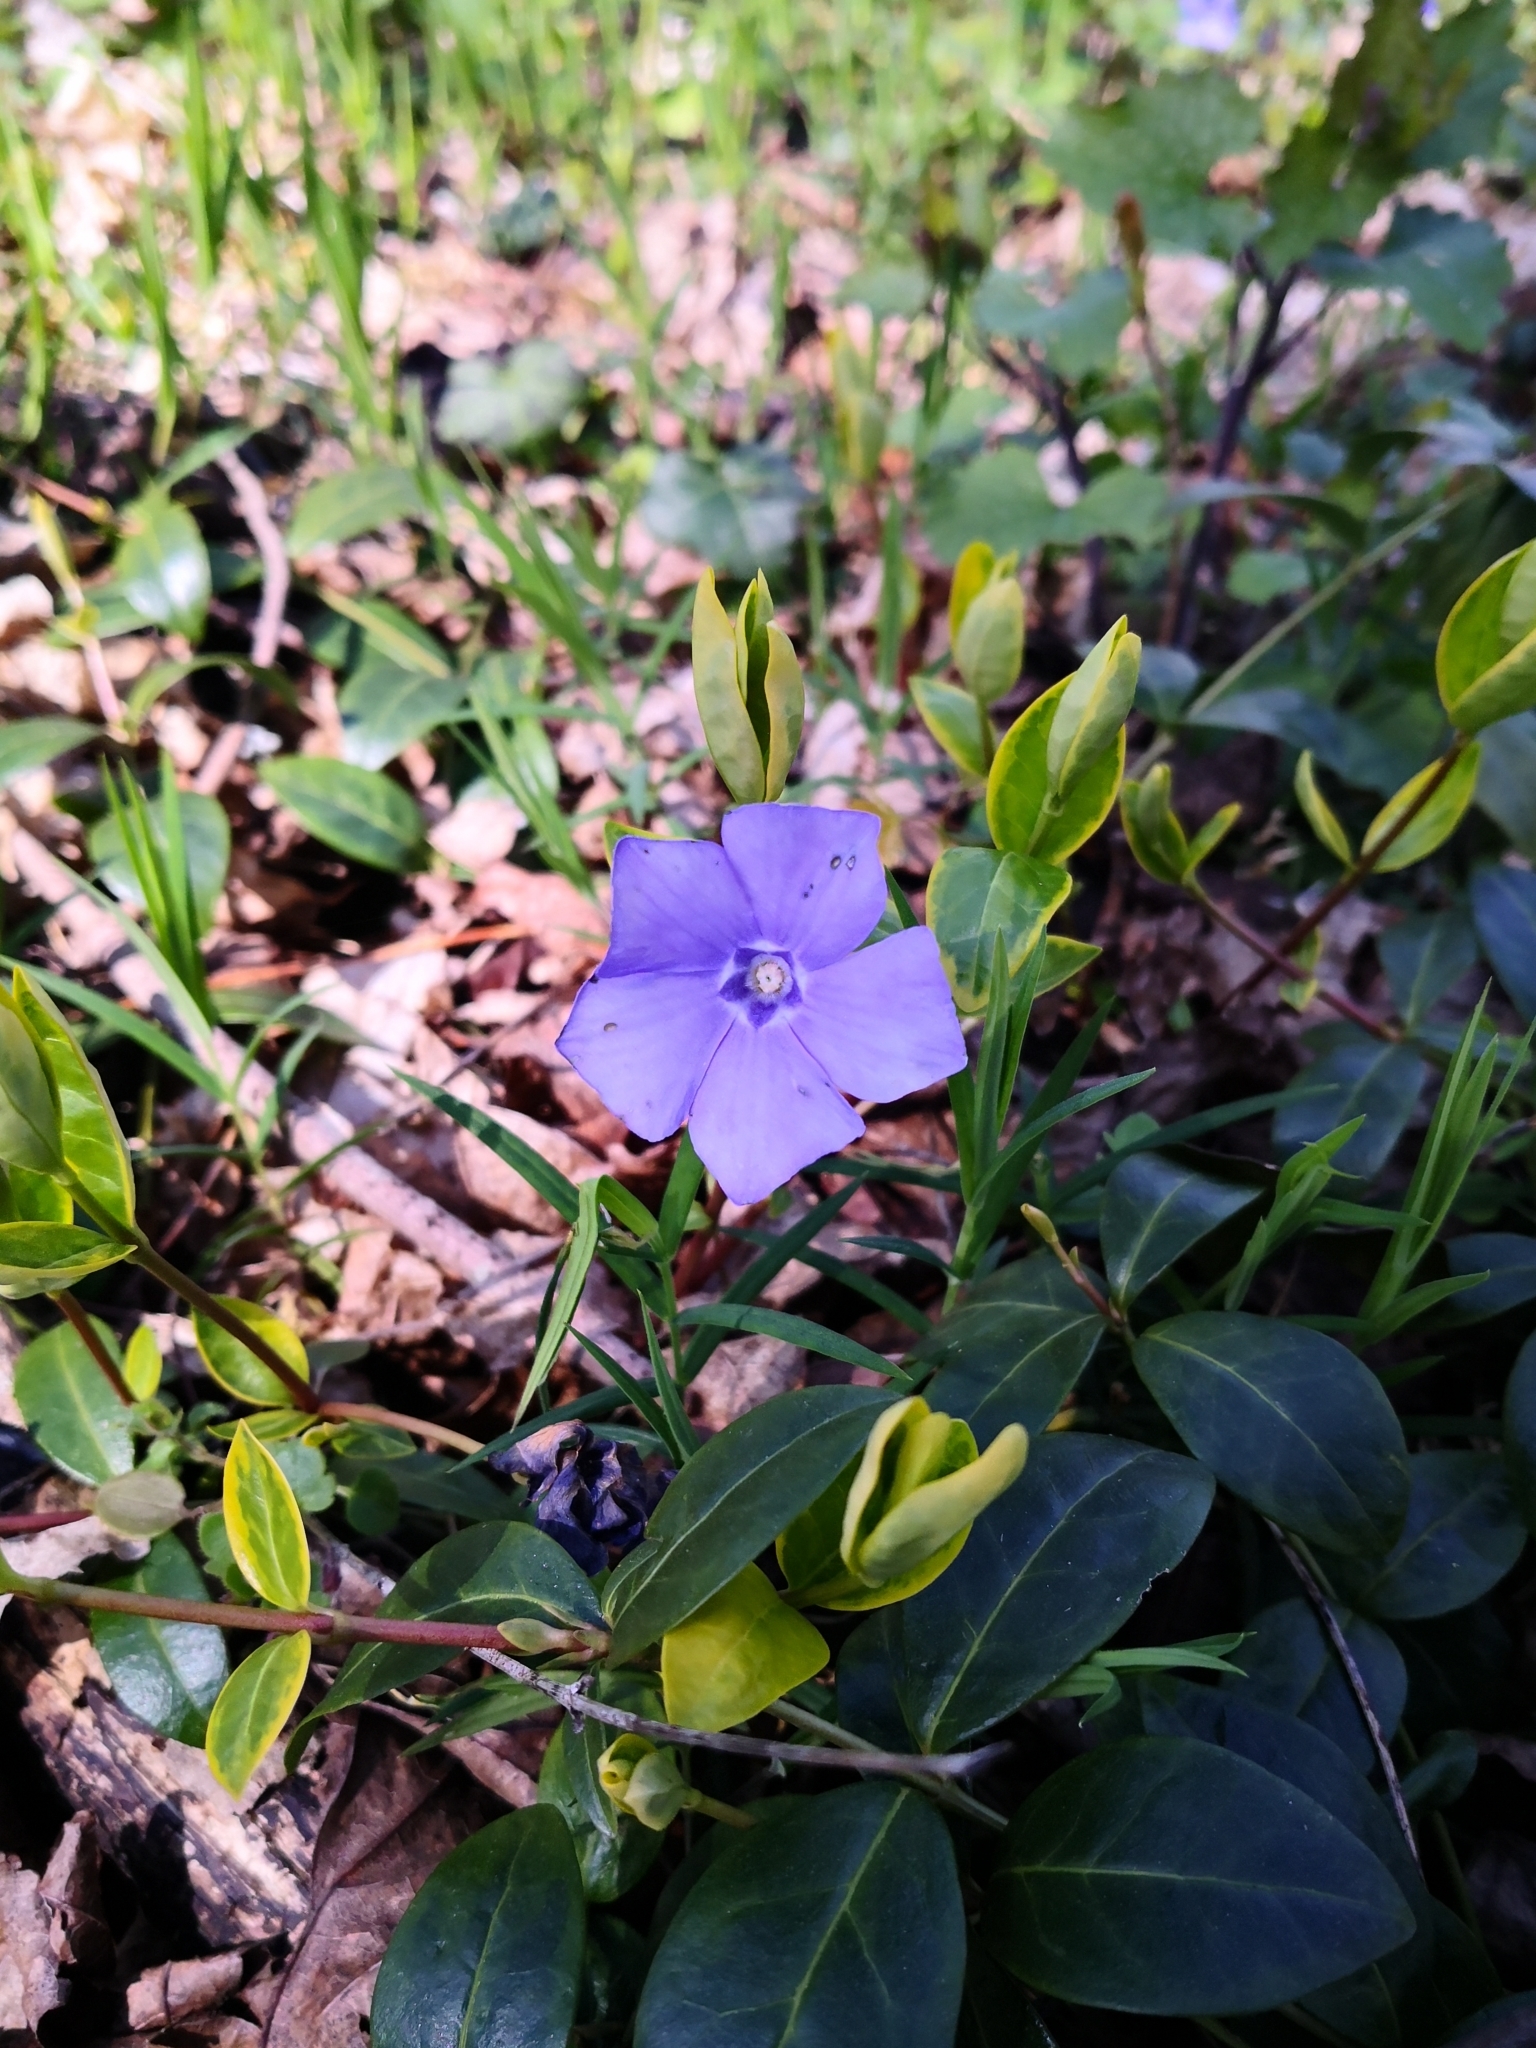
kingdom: Plantae
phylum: Tracheophyta
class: Magnoliopsida
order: Gentianales
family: Apocynaceae
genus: Vinca
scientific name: Vinca minor
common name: Lesser periwinkle
